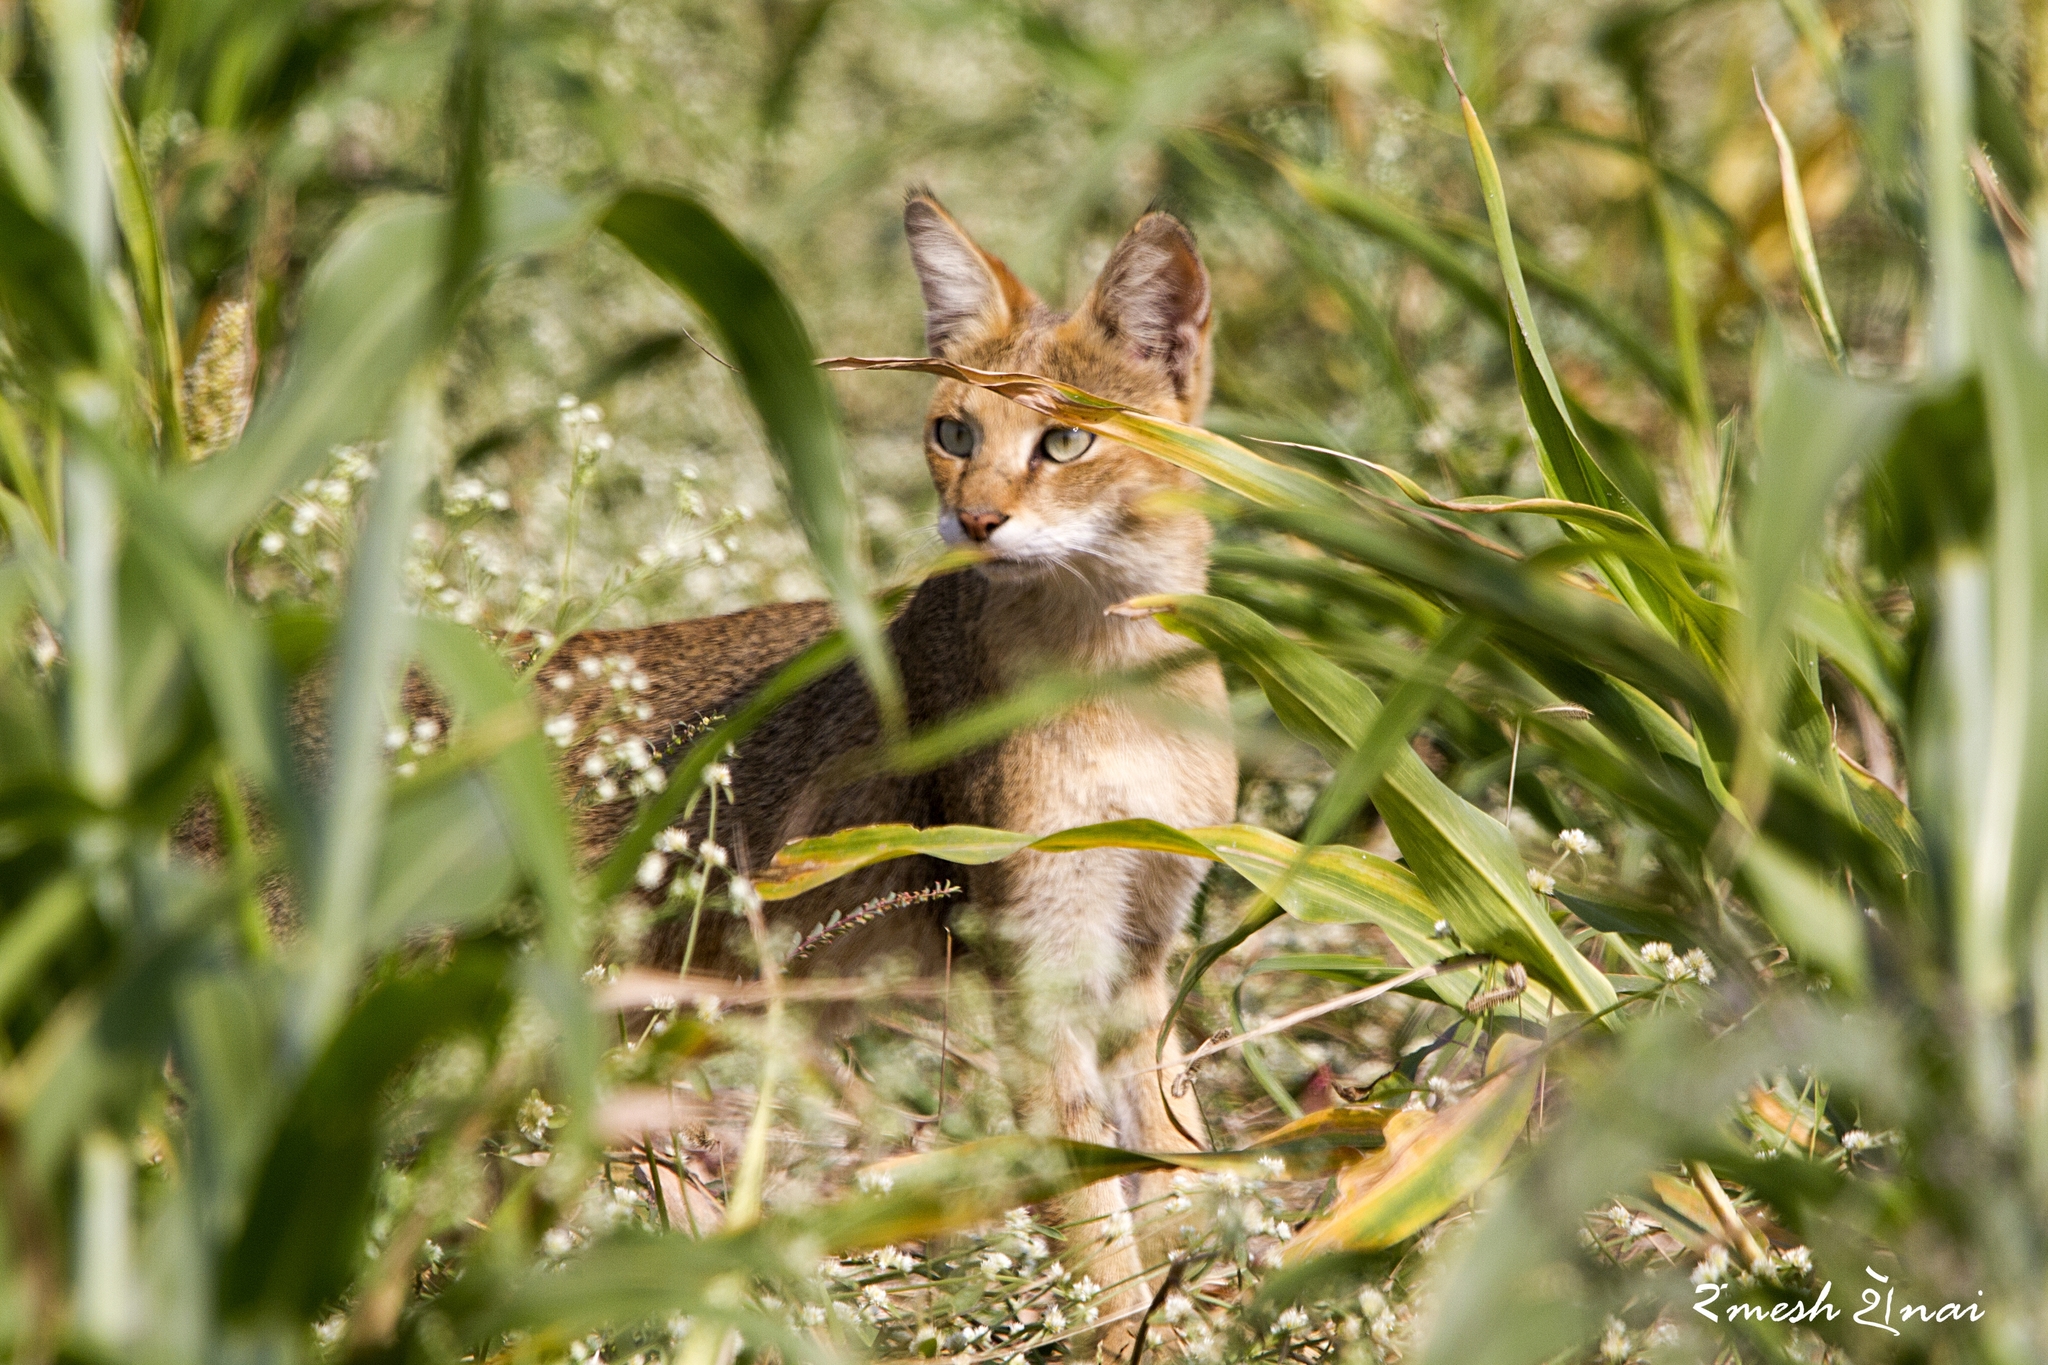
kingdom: Animalia
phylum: Chordata
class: Mammalia
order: Carnivora
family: Felidae
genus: Felis
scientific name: Felis chaus
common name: Jungle cat
